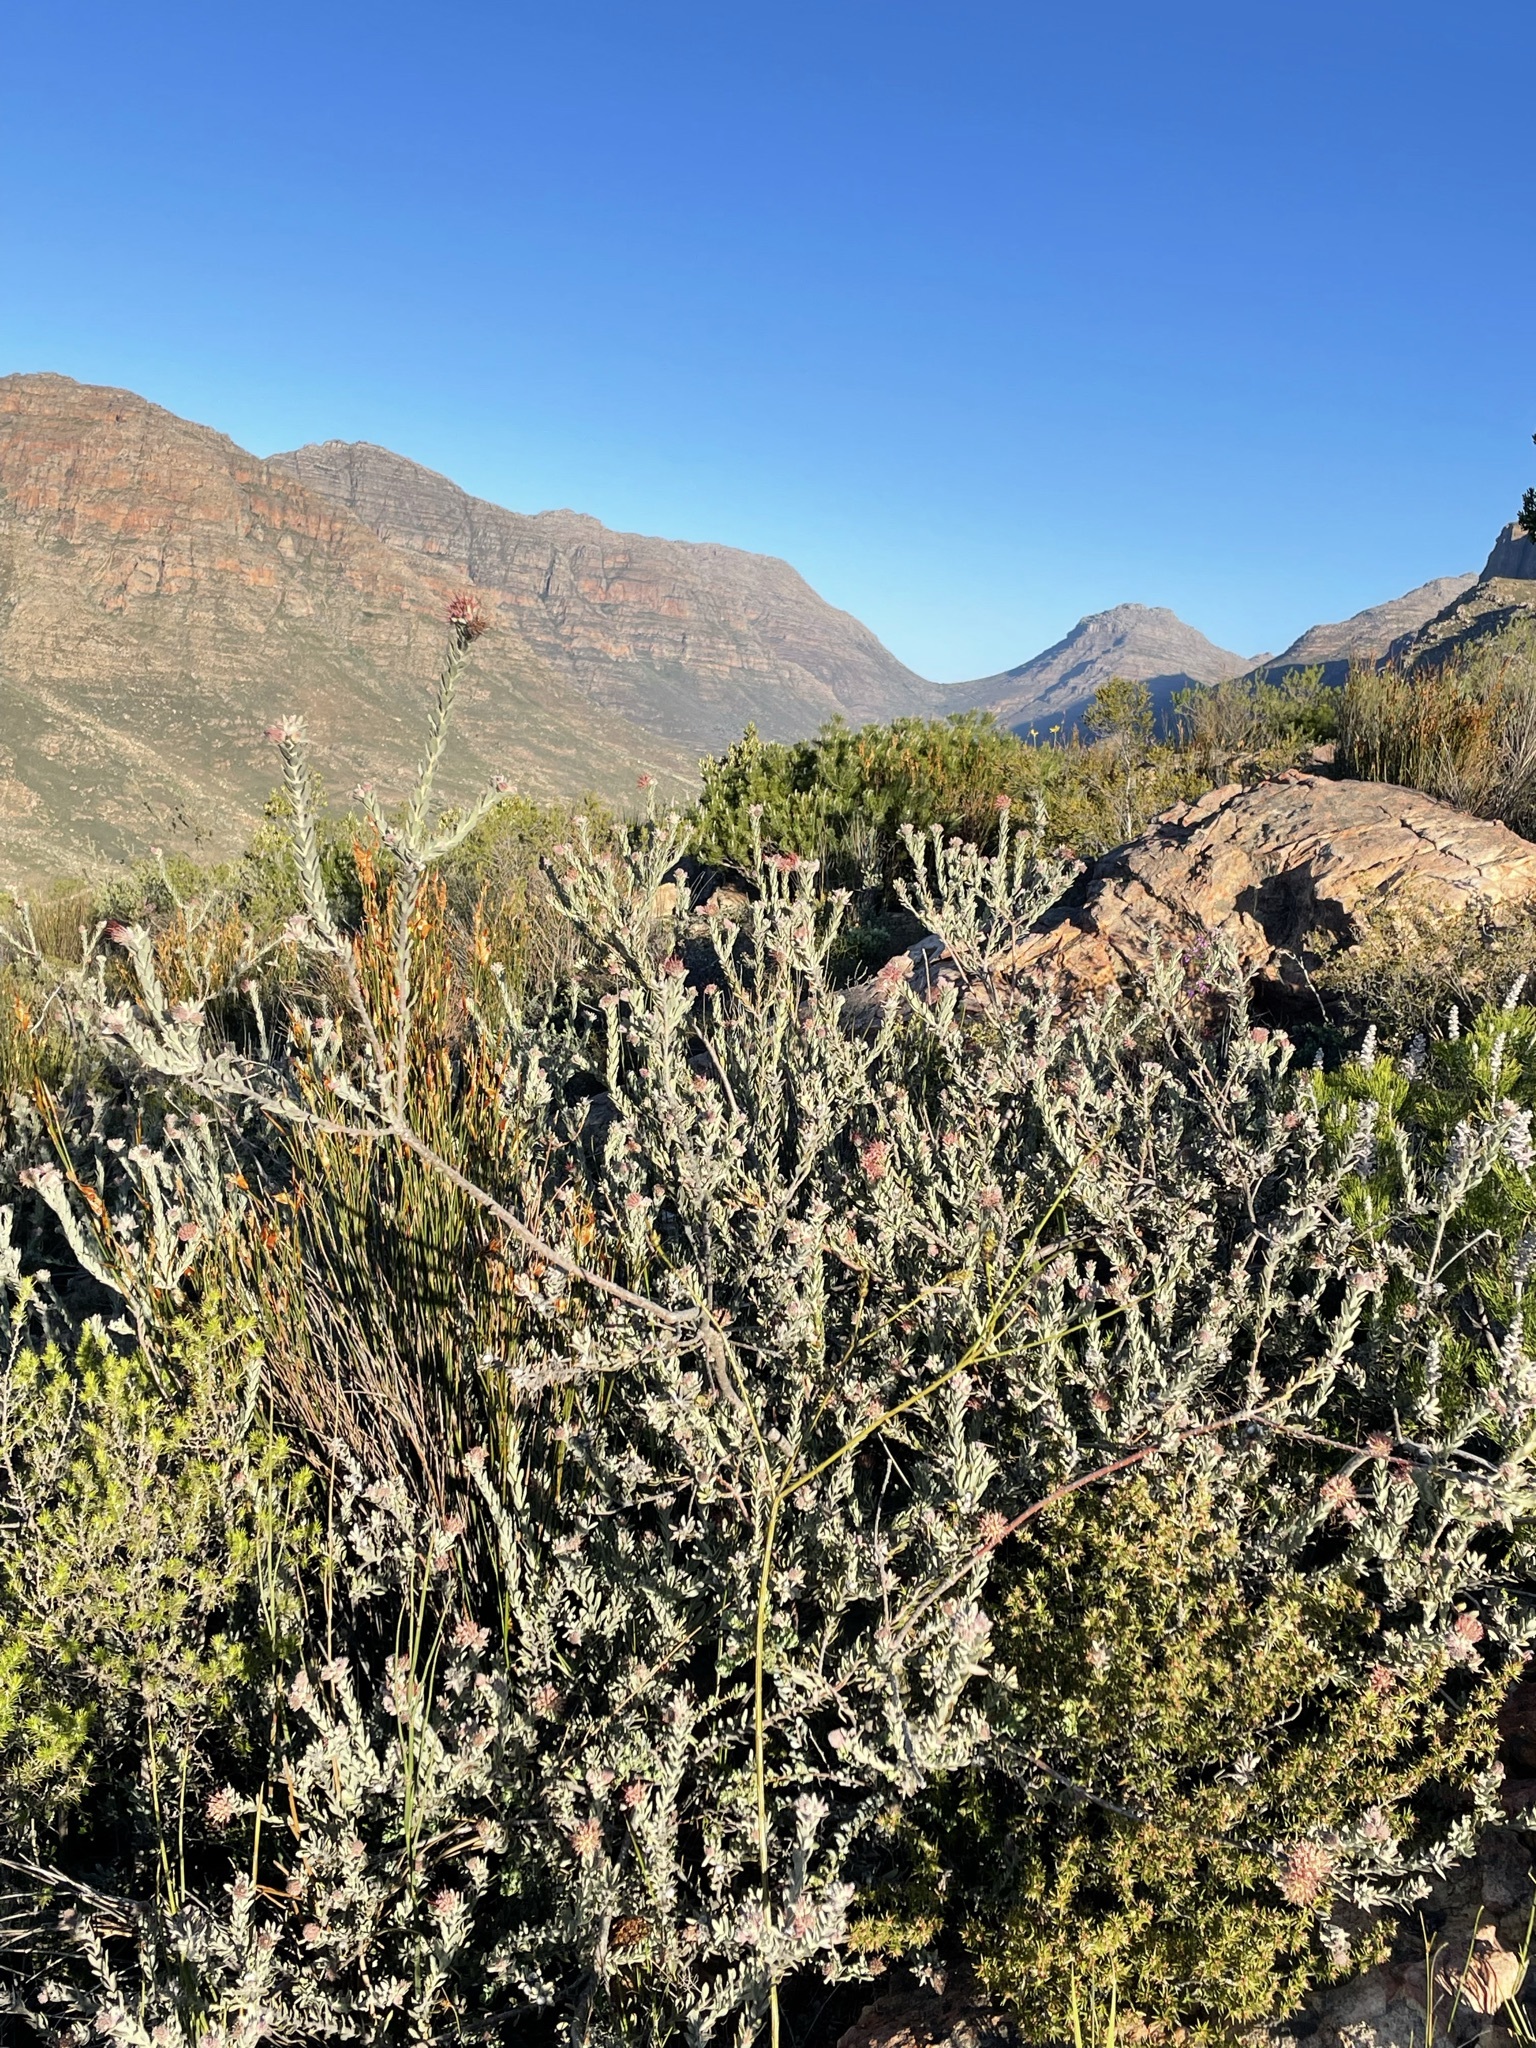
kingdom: Plantae
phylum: Tracheophyta
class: Magnoliopsida
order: Proteales
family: Proteaceae
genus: Leucospermum
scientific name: Leucospermum calligerum
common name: Arid pincushion
